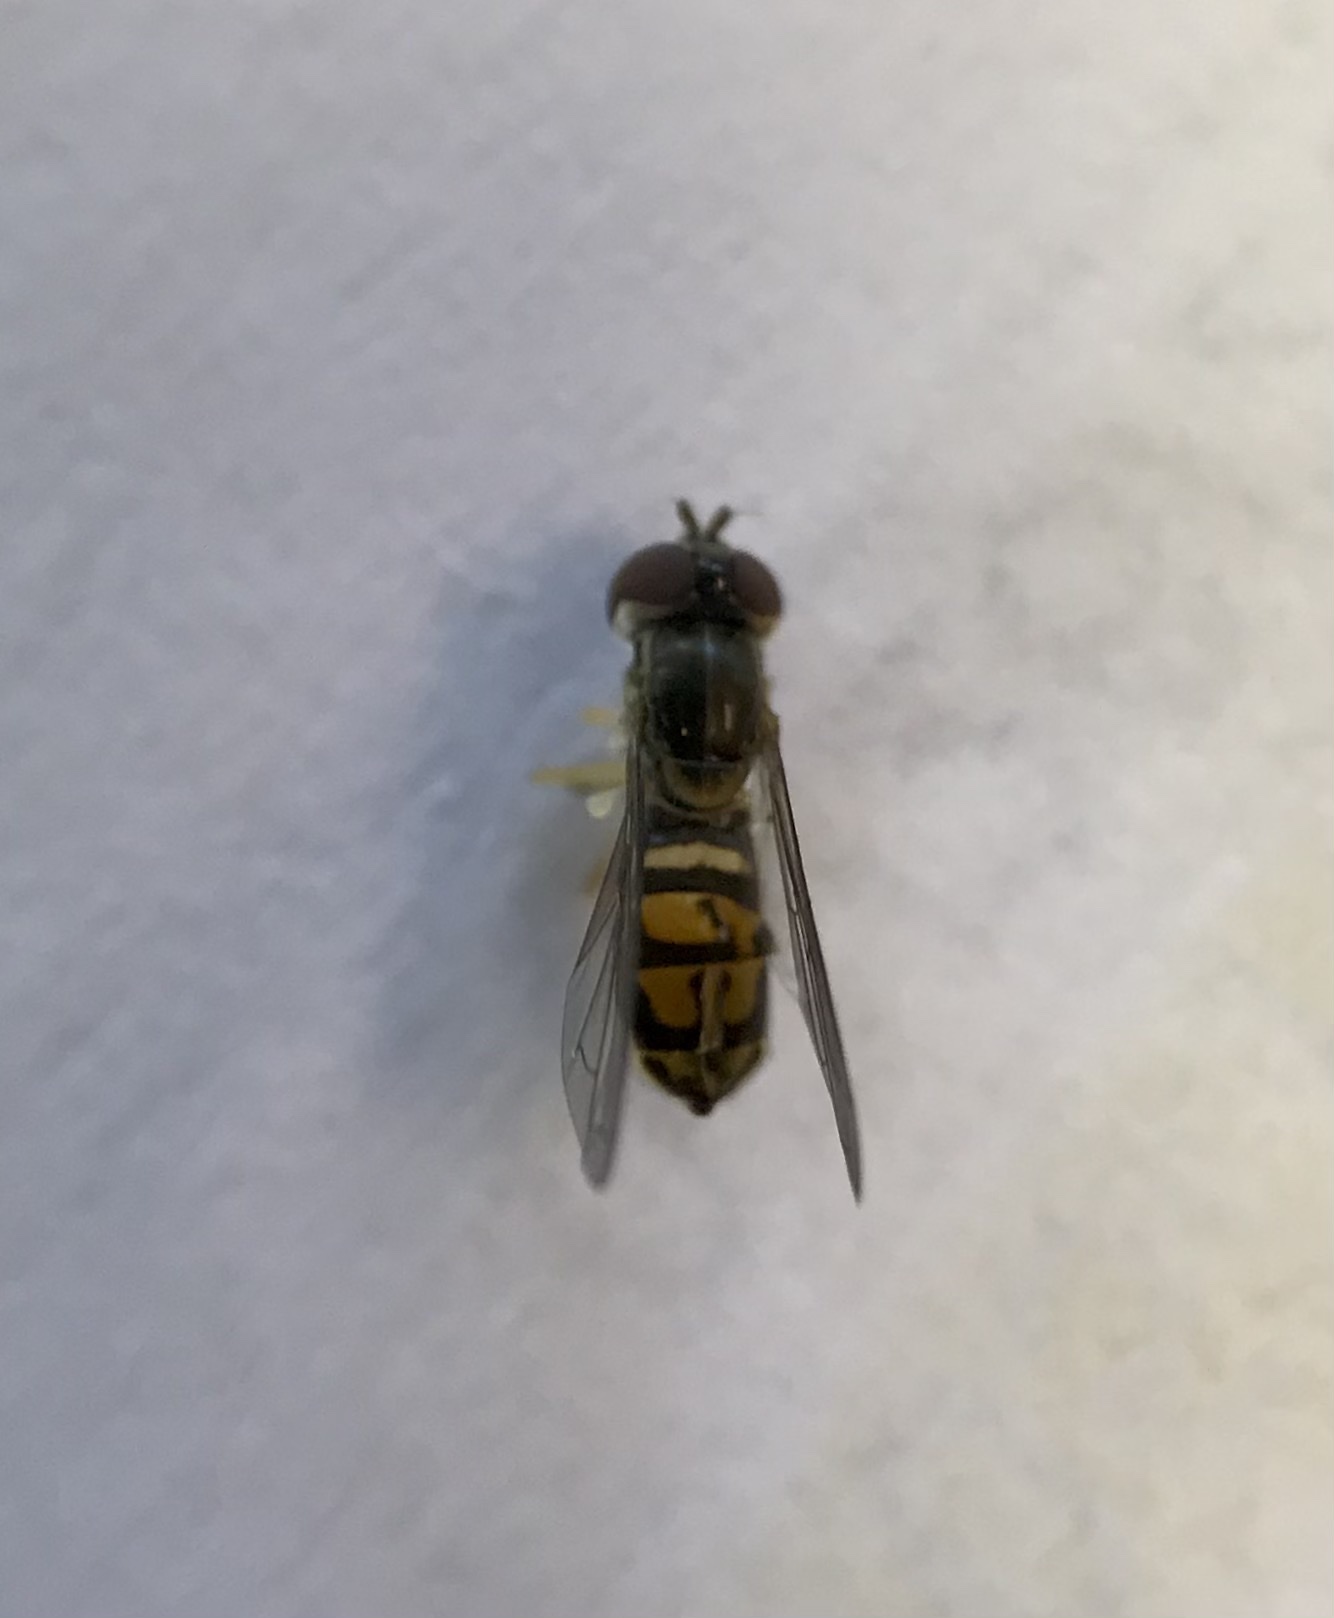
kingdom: Animalia
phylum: Arthropoda
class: Insecta
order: Diptera
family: Syrphidae
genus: Toxomerus
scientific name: Toxomerus marginatus
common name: Syrphid fly
